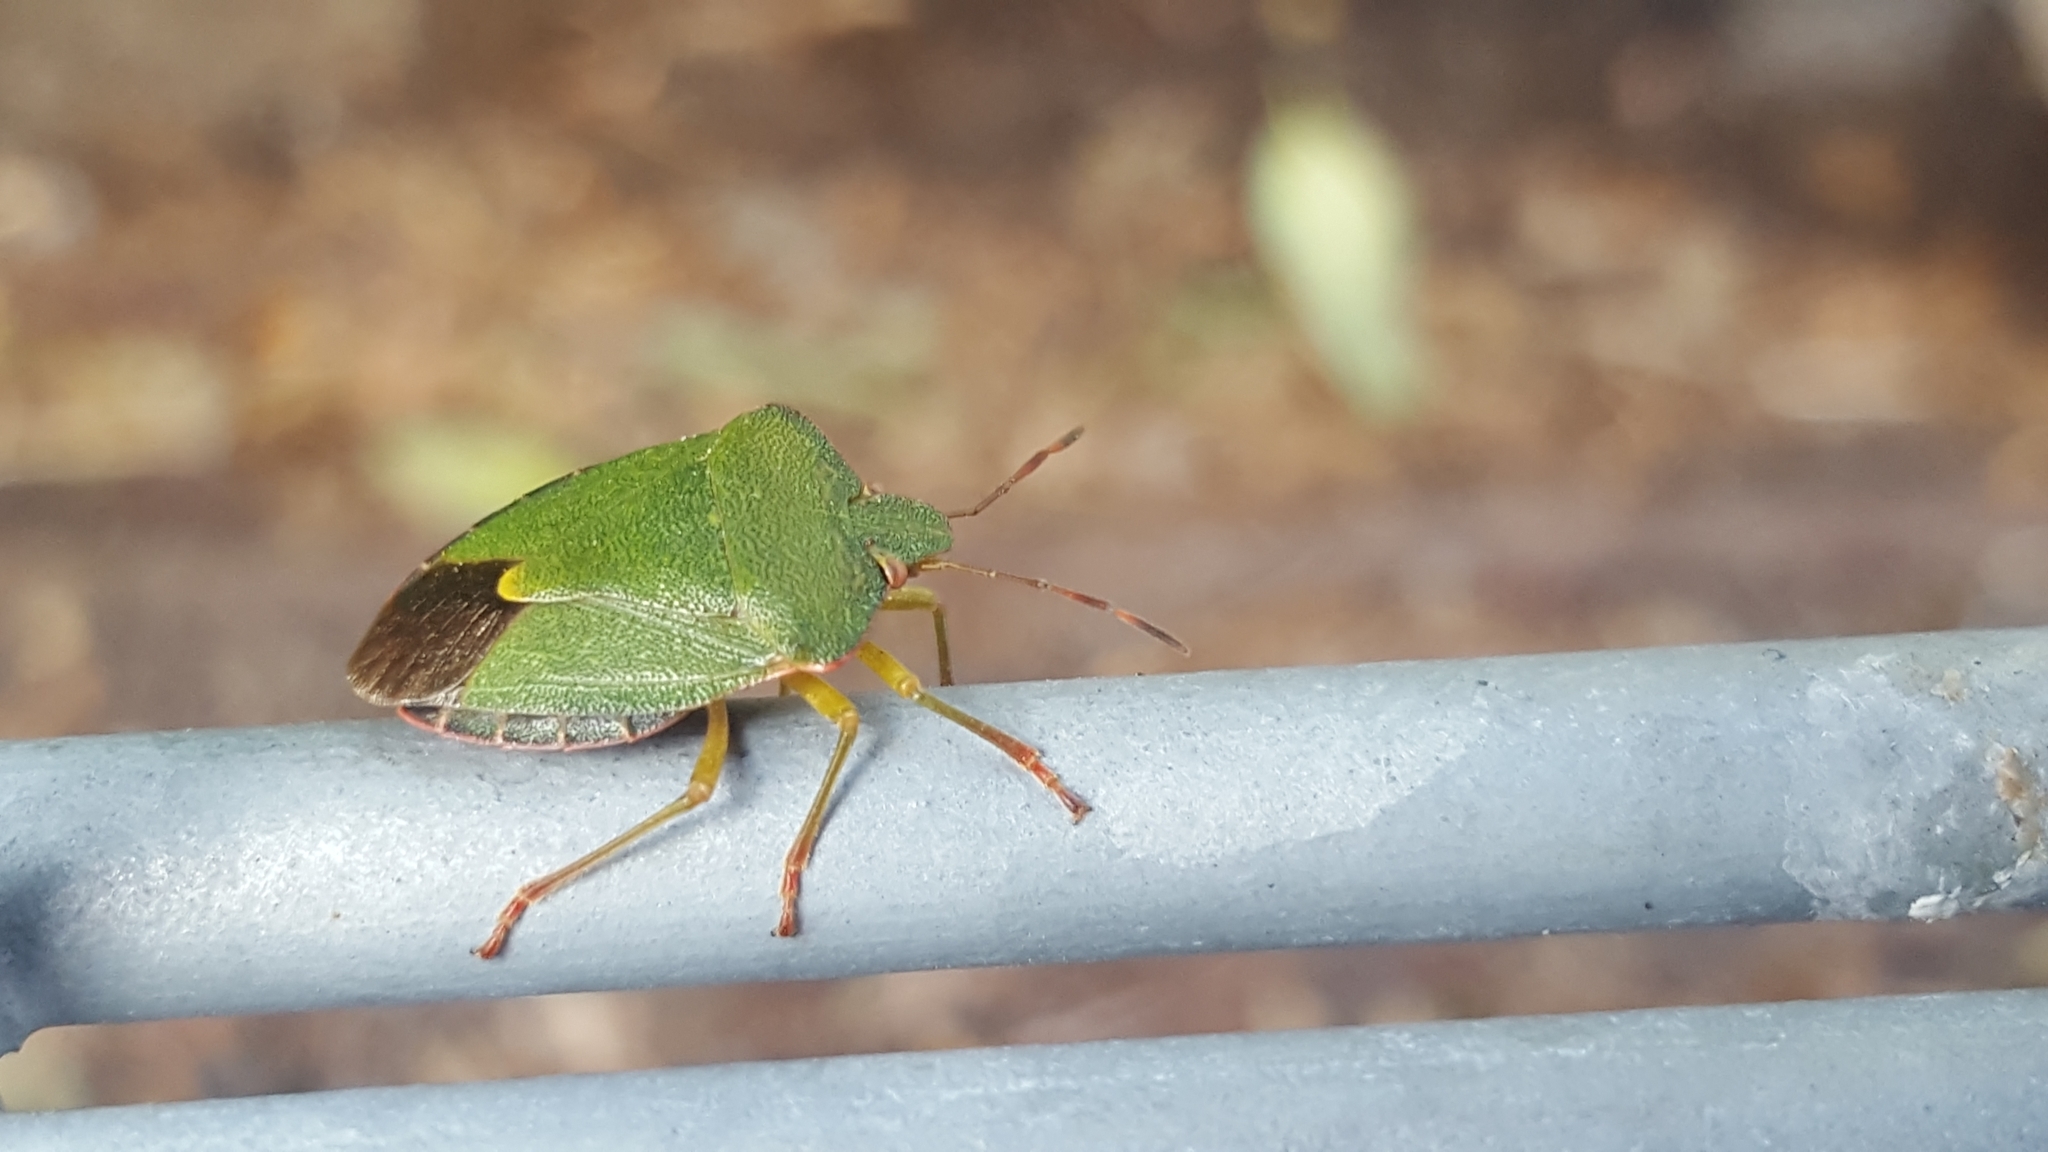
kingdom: Animalia
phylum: Arthropoda
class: Insecta
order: Hemiptera
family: Pentatomidae
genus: Palomena
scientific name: Palomena prasina
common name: Green shieldbug
